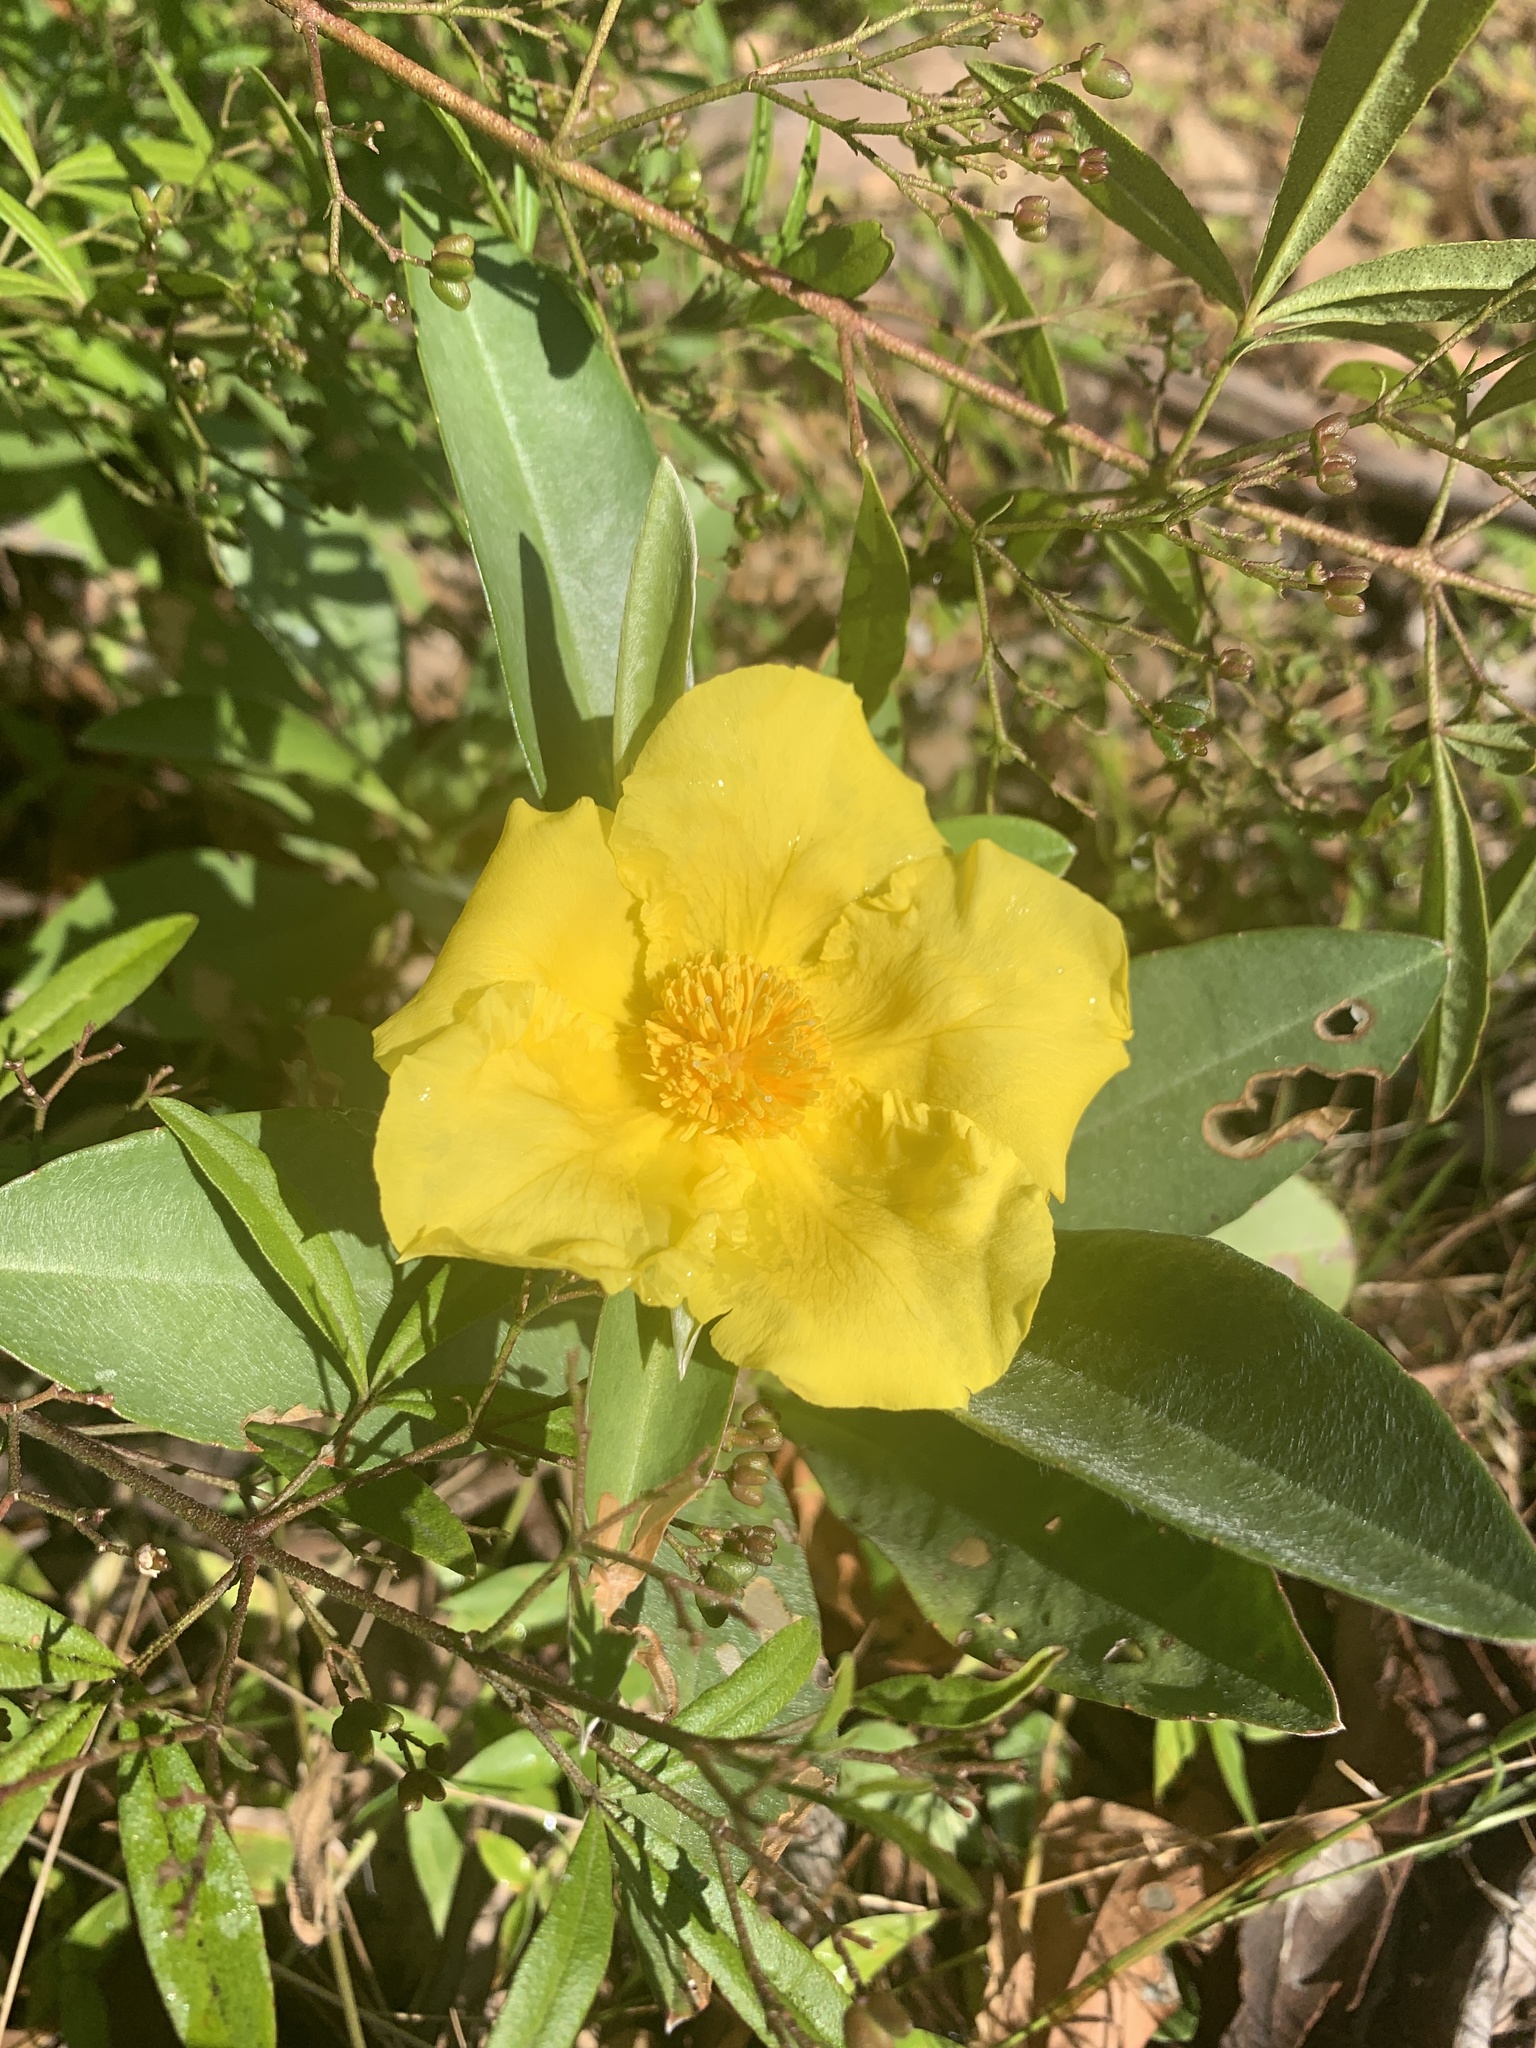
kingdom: Plantae
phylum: Tracheophyta
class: Magnoliopsida
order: Dilleniales
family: Dilleniaceae
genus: Hibbertia
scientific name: Hibbertia scandens
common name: Climbing guinea-flower
